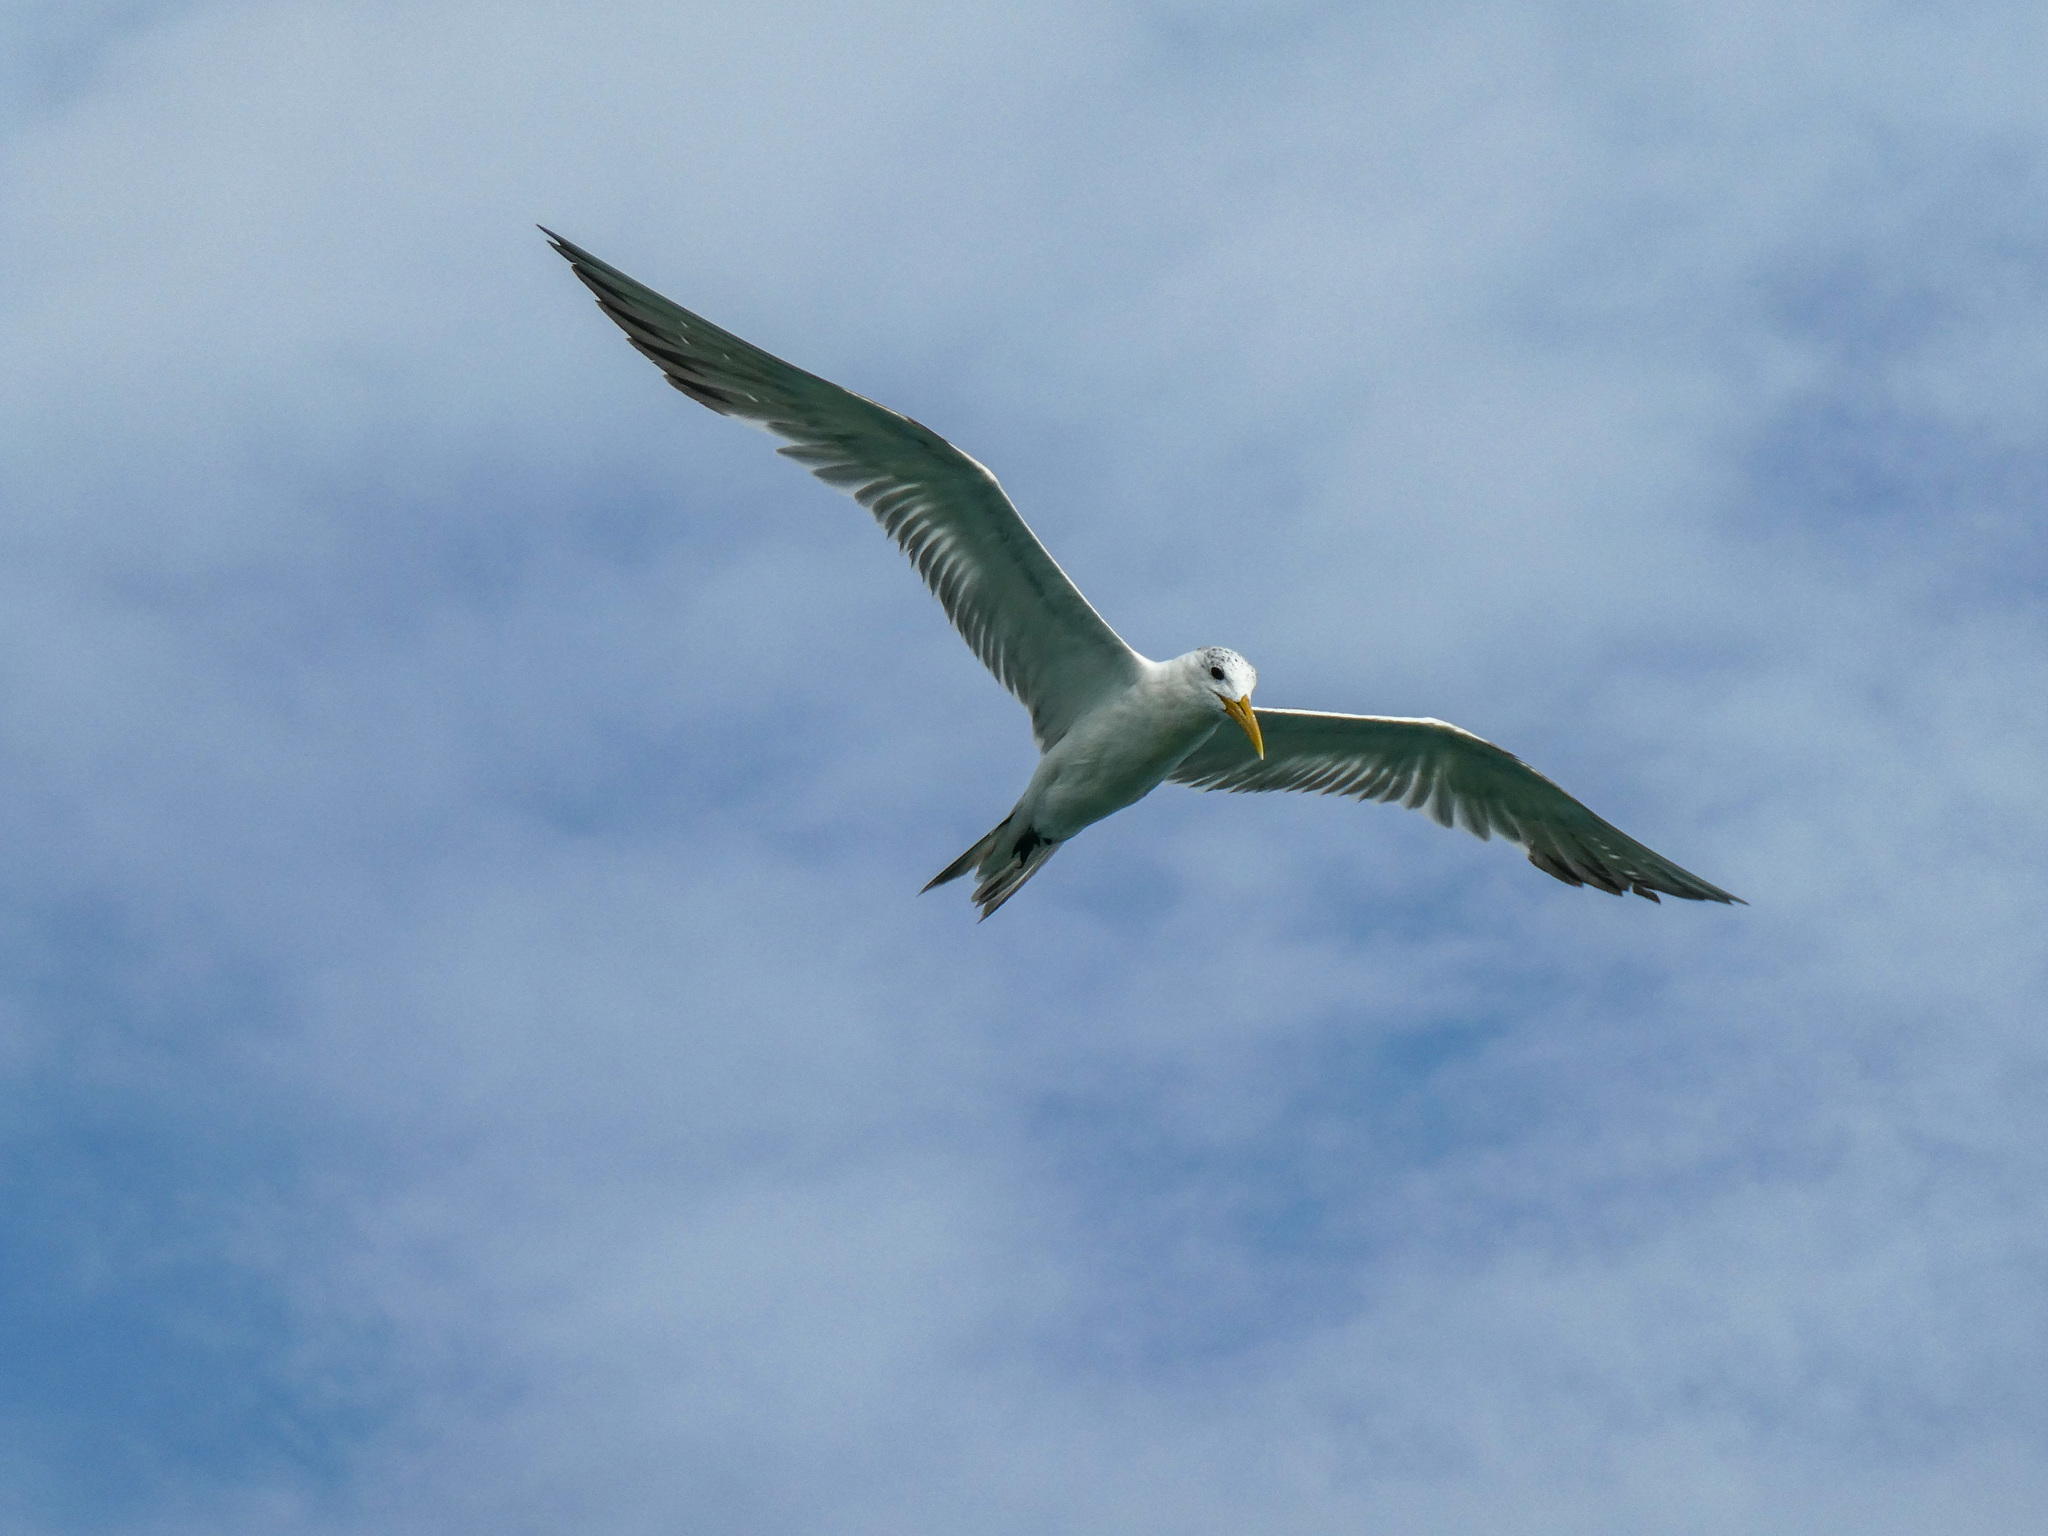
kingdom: Animalia
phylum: Chordata
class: Aves
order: Charadriiformes
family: Laridae
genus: Thalasseus
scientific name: Thalasseus bergii
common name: Greater crested tern
